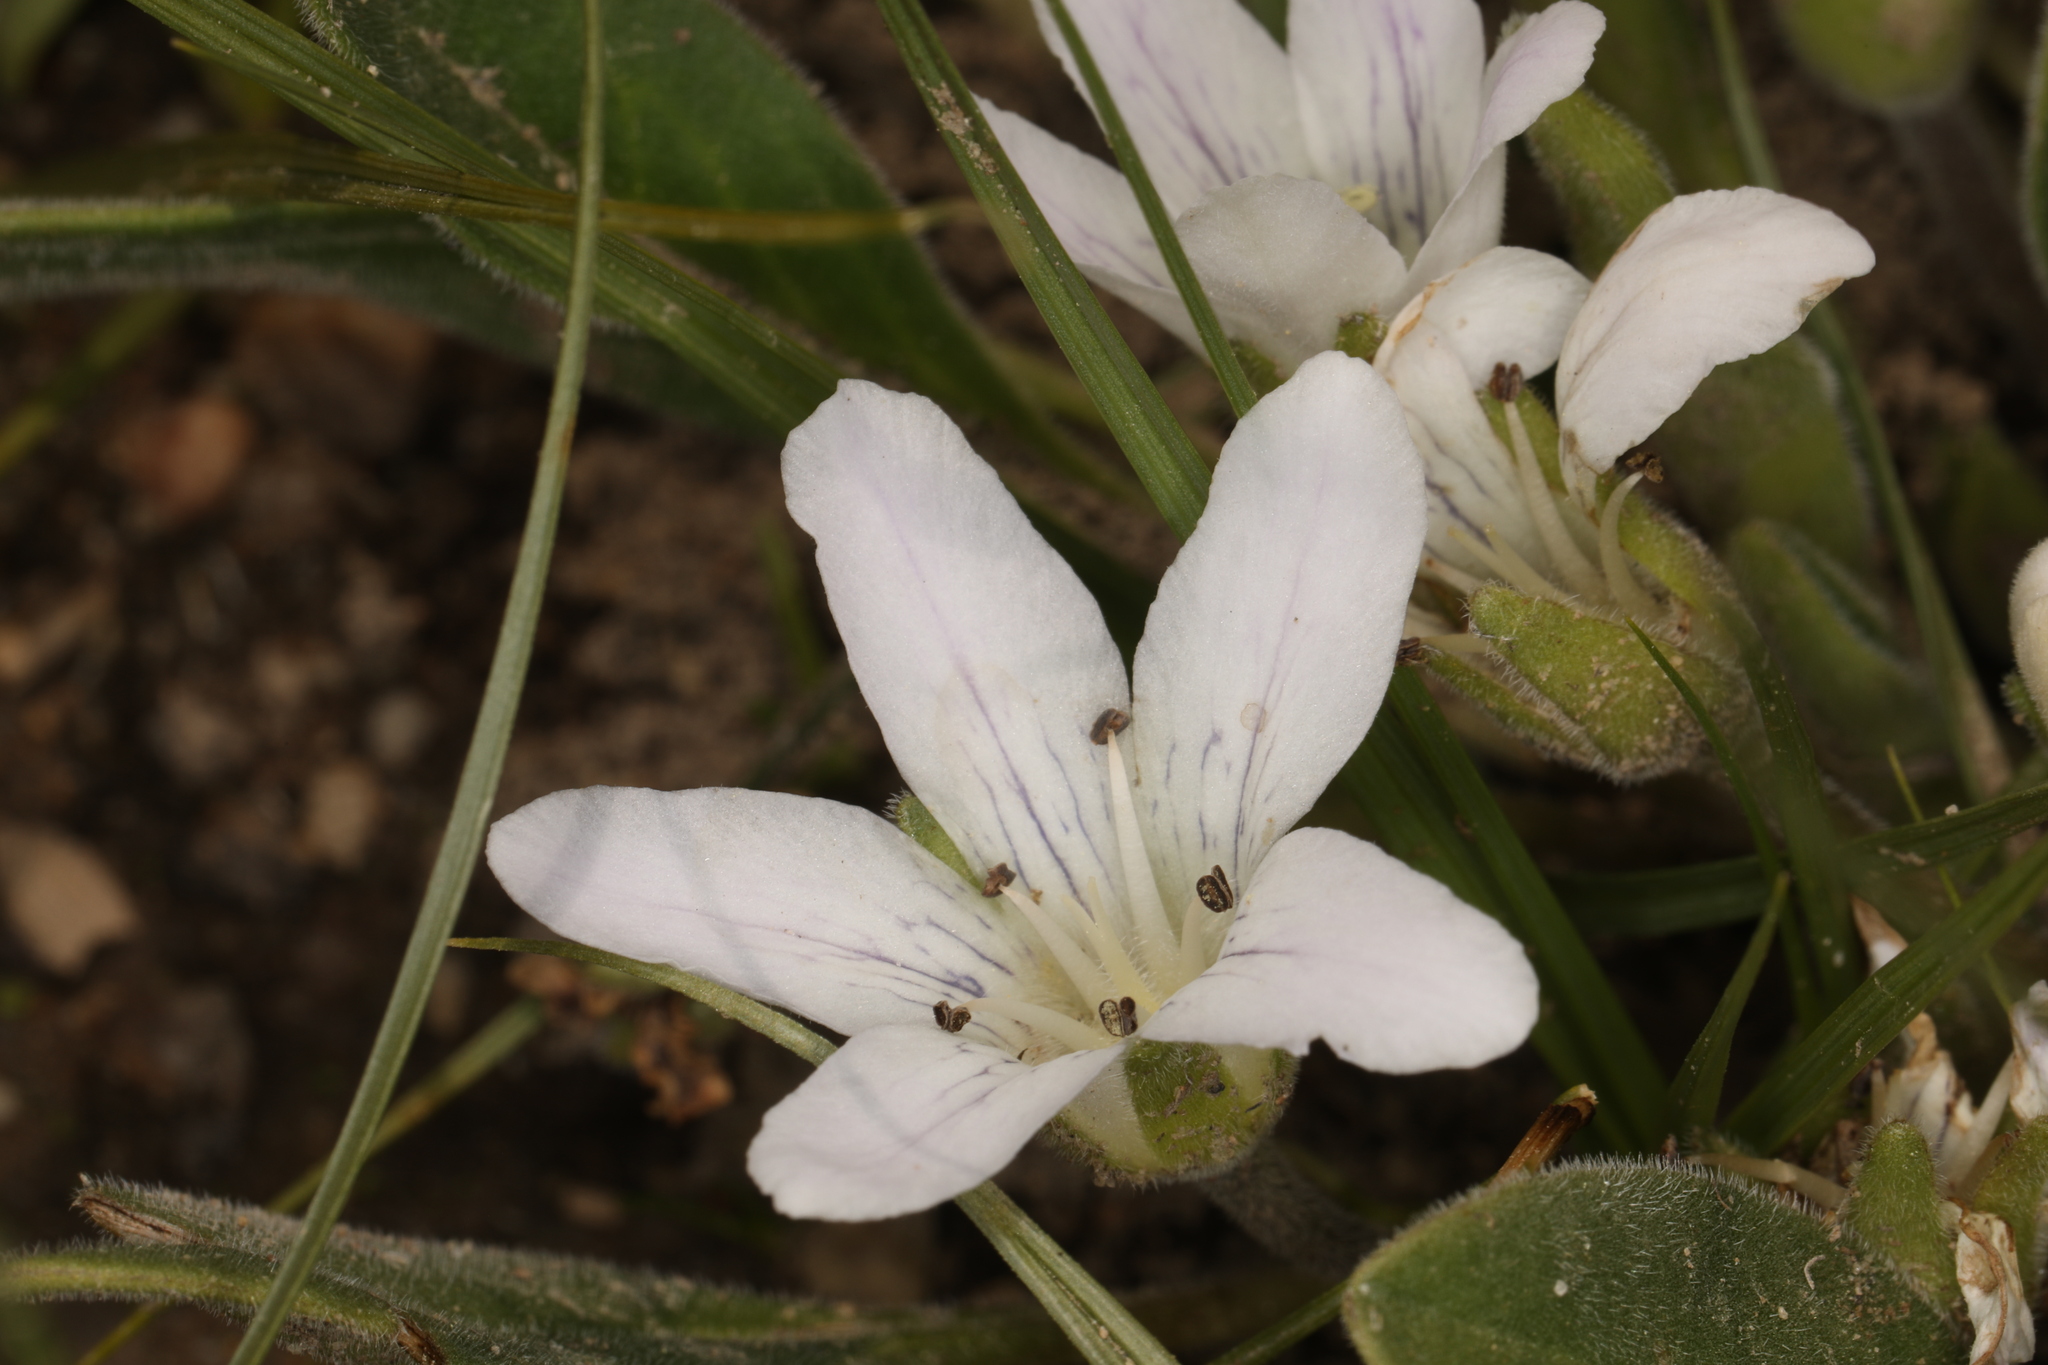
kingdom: Plantae
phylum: Tracheophyta
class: Magnoliopsida
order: Boraginales
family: Hydrophyllaceae
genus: Hesperochiron
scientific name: Hesperochiron californicus
